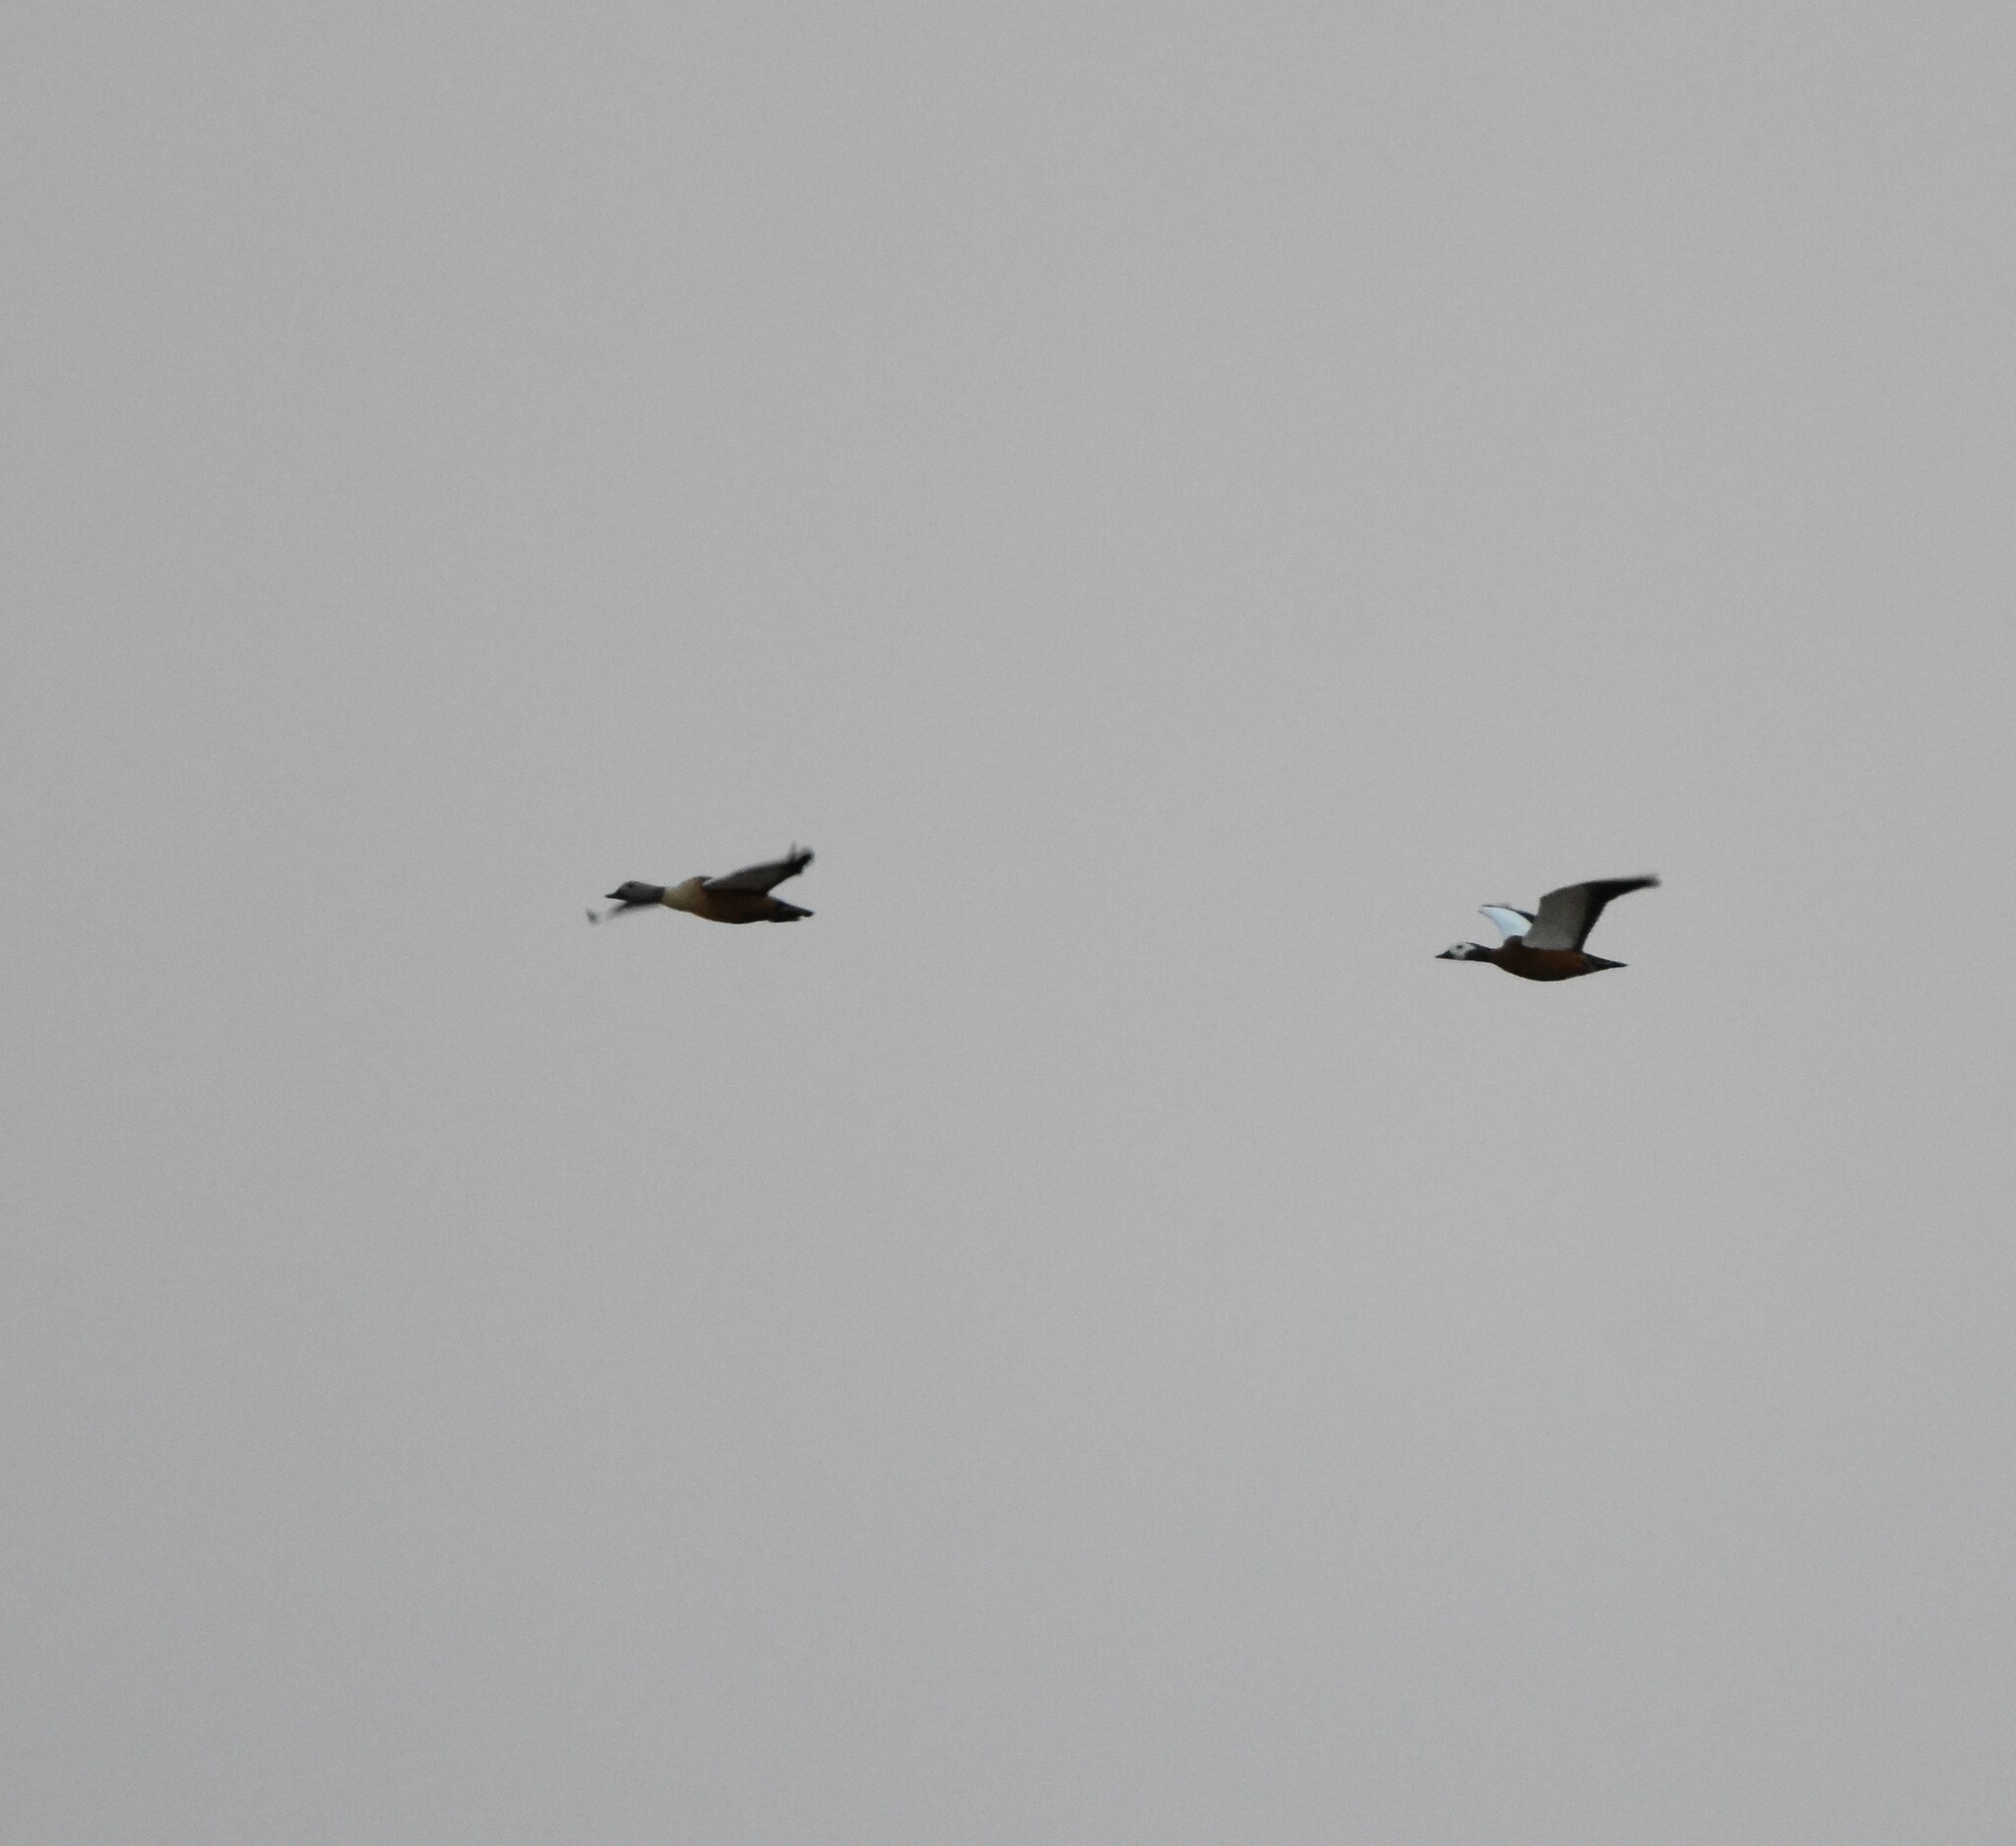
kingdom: Animalia
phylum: Chordata
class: Aves
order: Anseriformes
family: Anatidae
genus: Tadorna
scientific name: Tadorna cana
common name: South african shelduck
